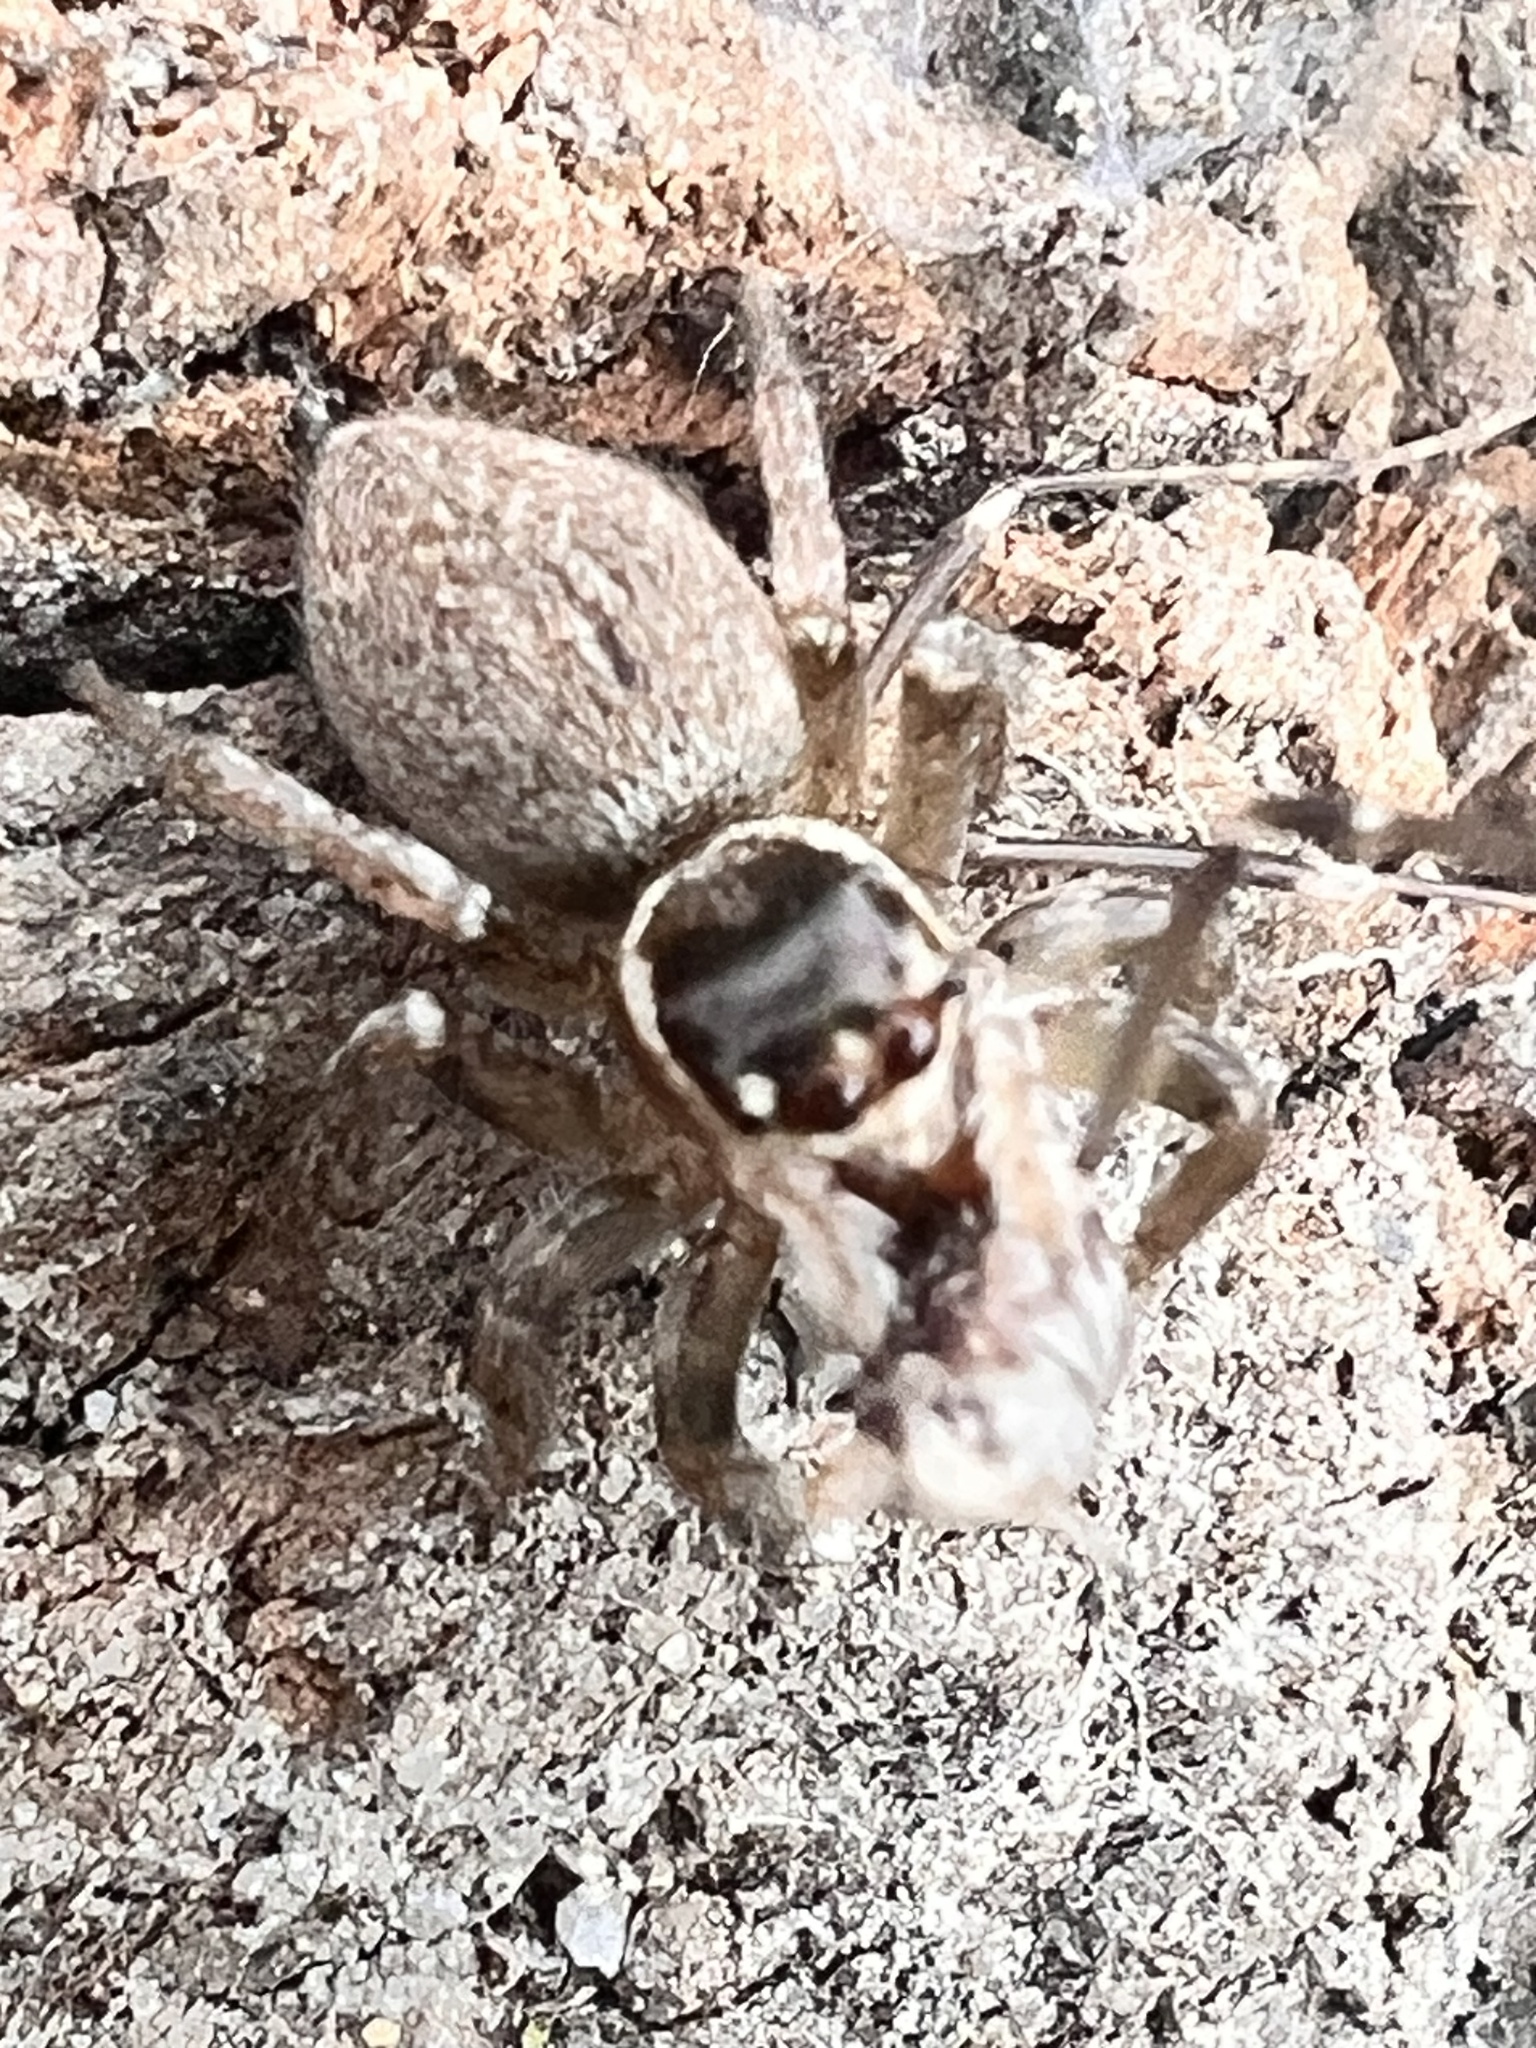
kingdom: Animalia
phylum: Arthropoda
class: Arachnida
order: Araneae
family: Salticidae
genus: Maratus
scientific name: Maratus griseus
